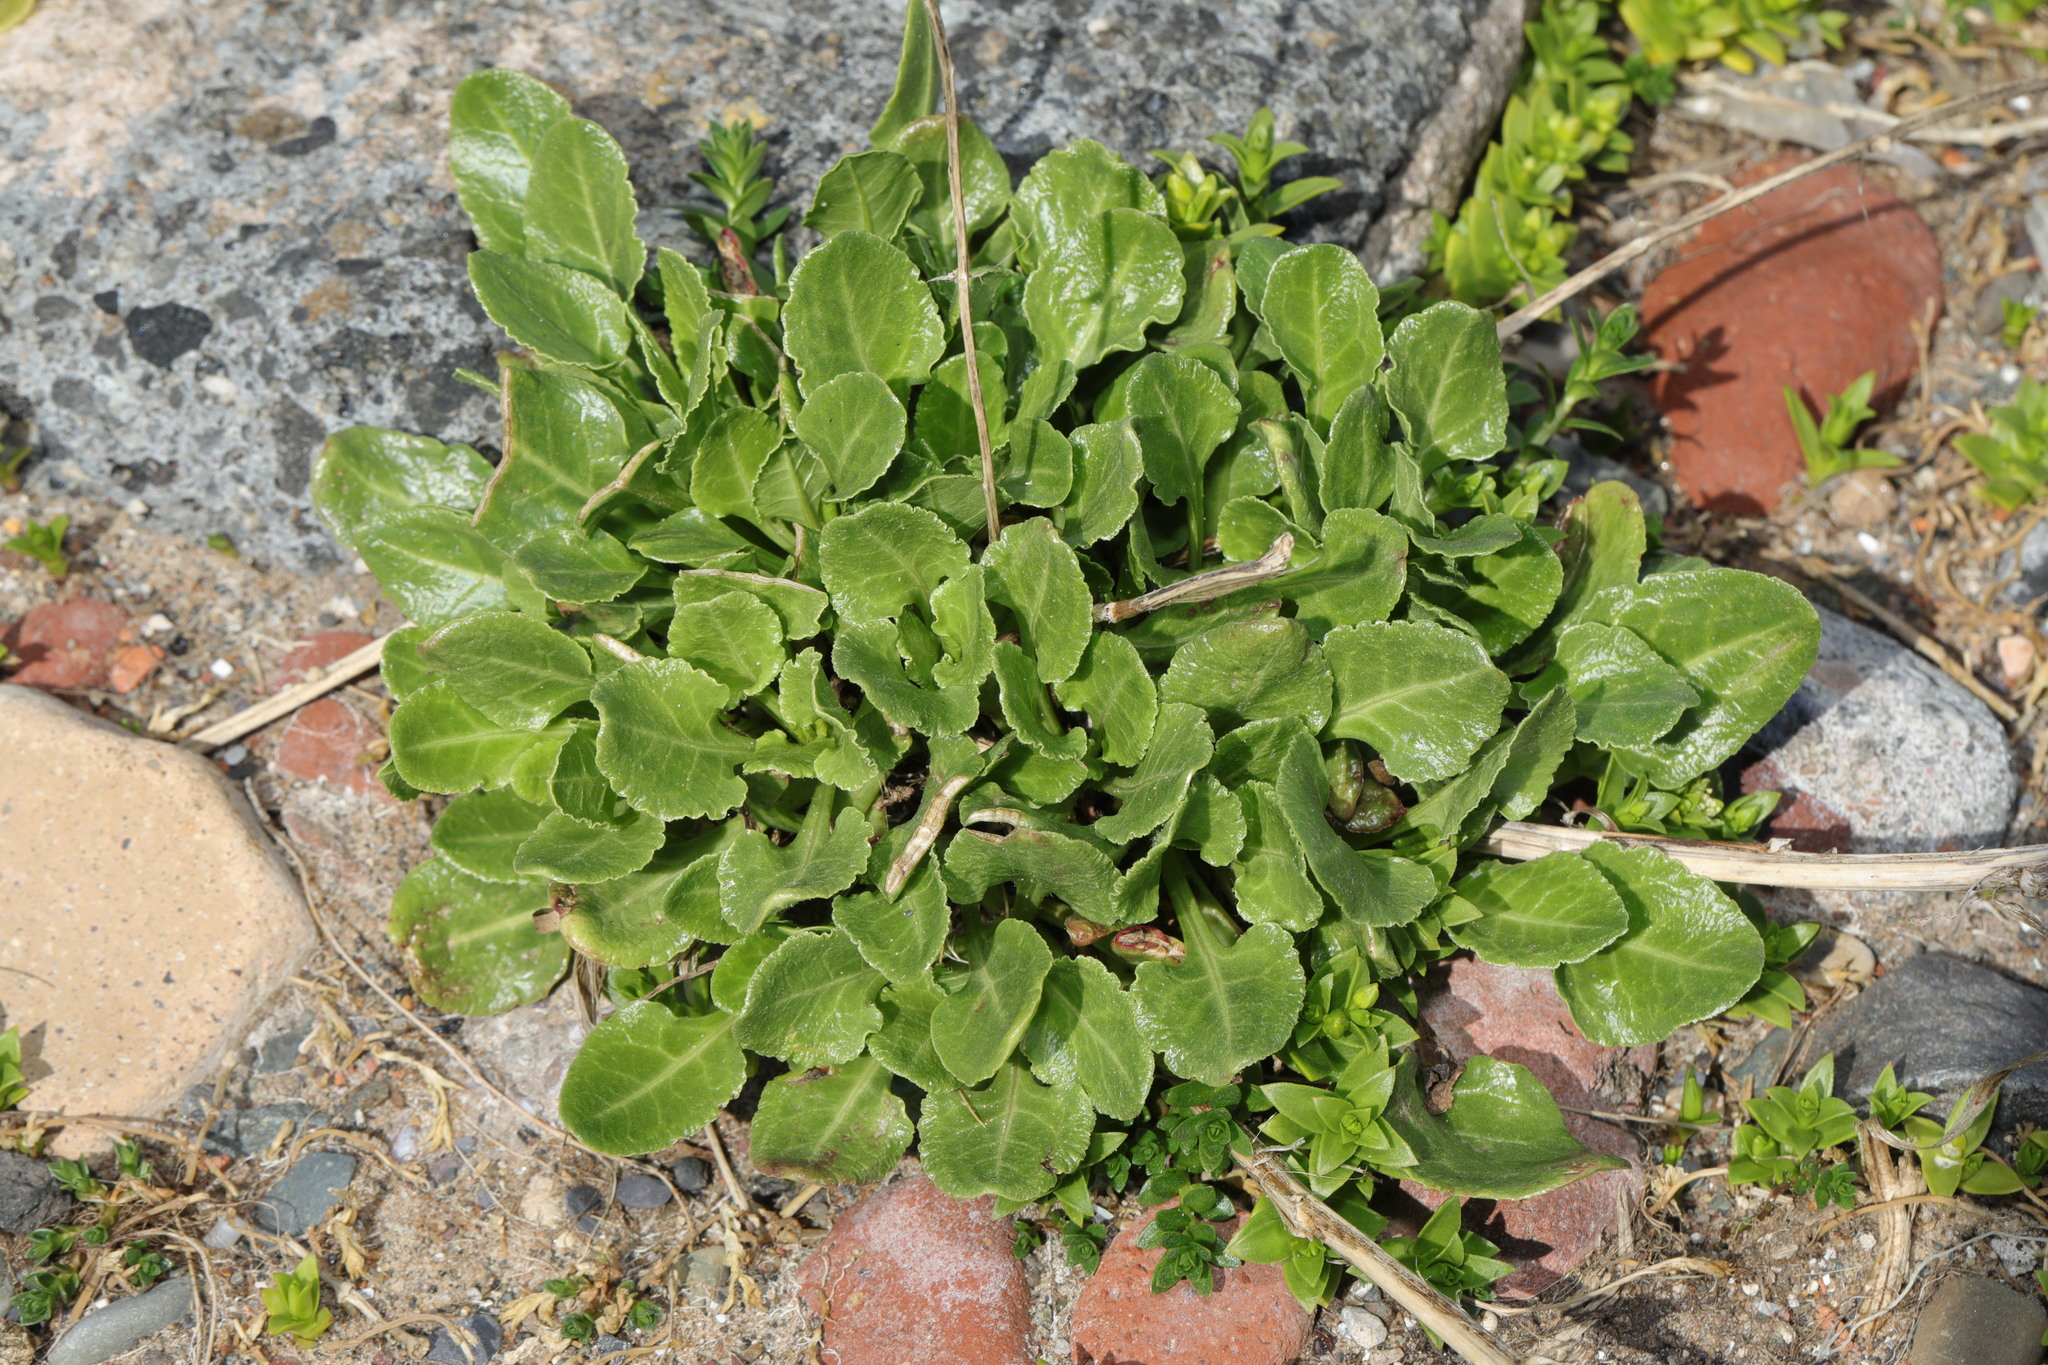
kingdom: Plantae
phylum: Tracheophyta
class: Magnoliopsida
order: Caryophyllales
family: Amaranthaceae
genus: Beta
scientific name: Beta vulgaris
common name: Beet
